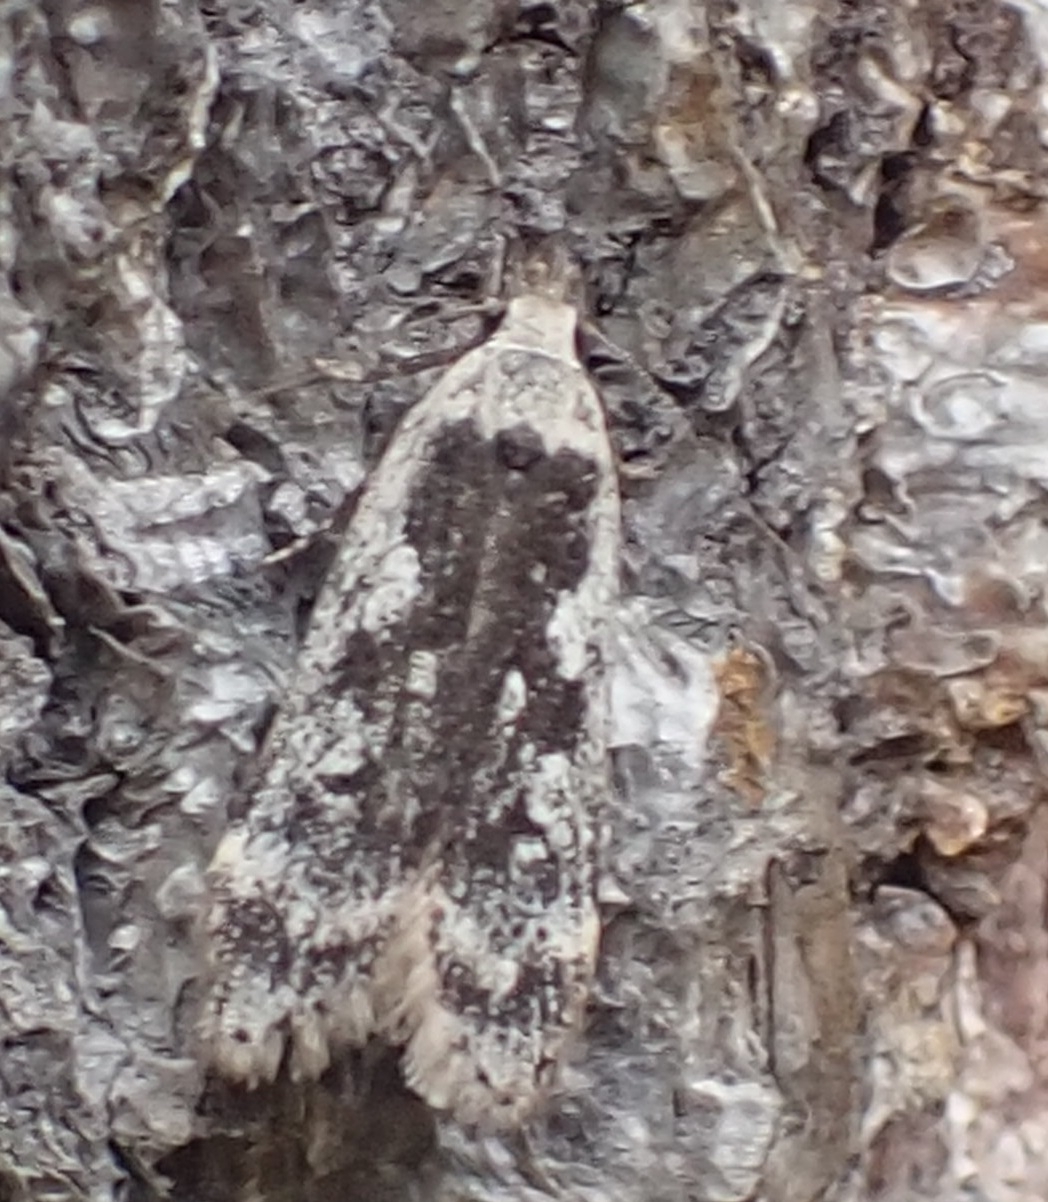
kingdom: Animalia
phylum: Arthropoda
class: Insecta
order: Lepidoptera
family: Gelechiidae
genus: Anacampsis
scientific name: Anacampsis blattariella
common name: Birch sober
